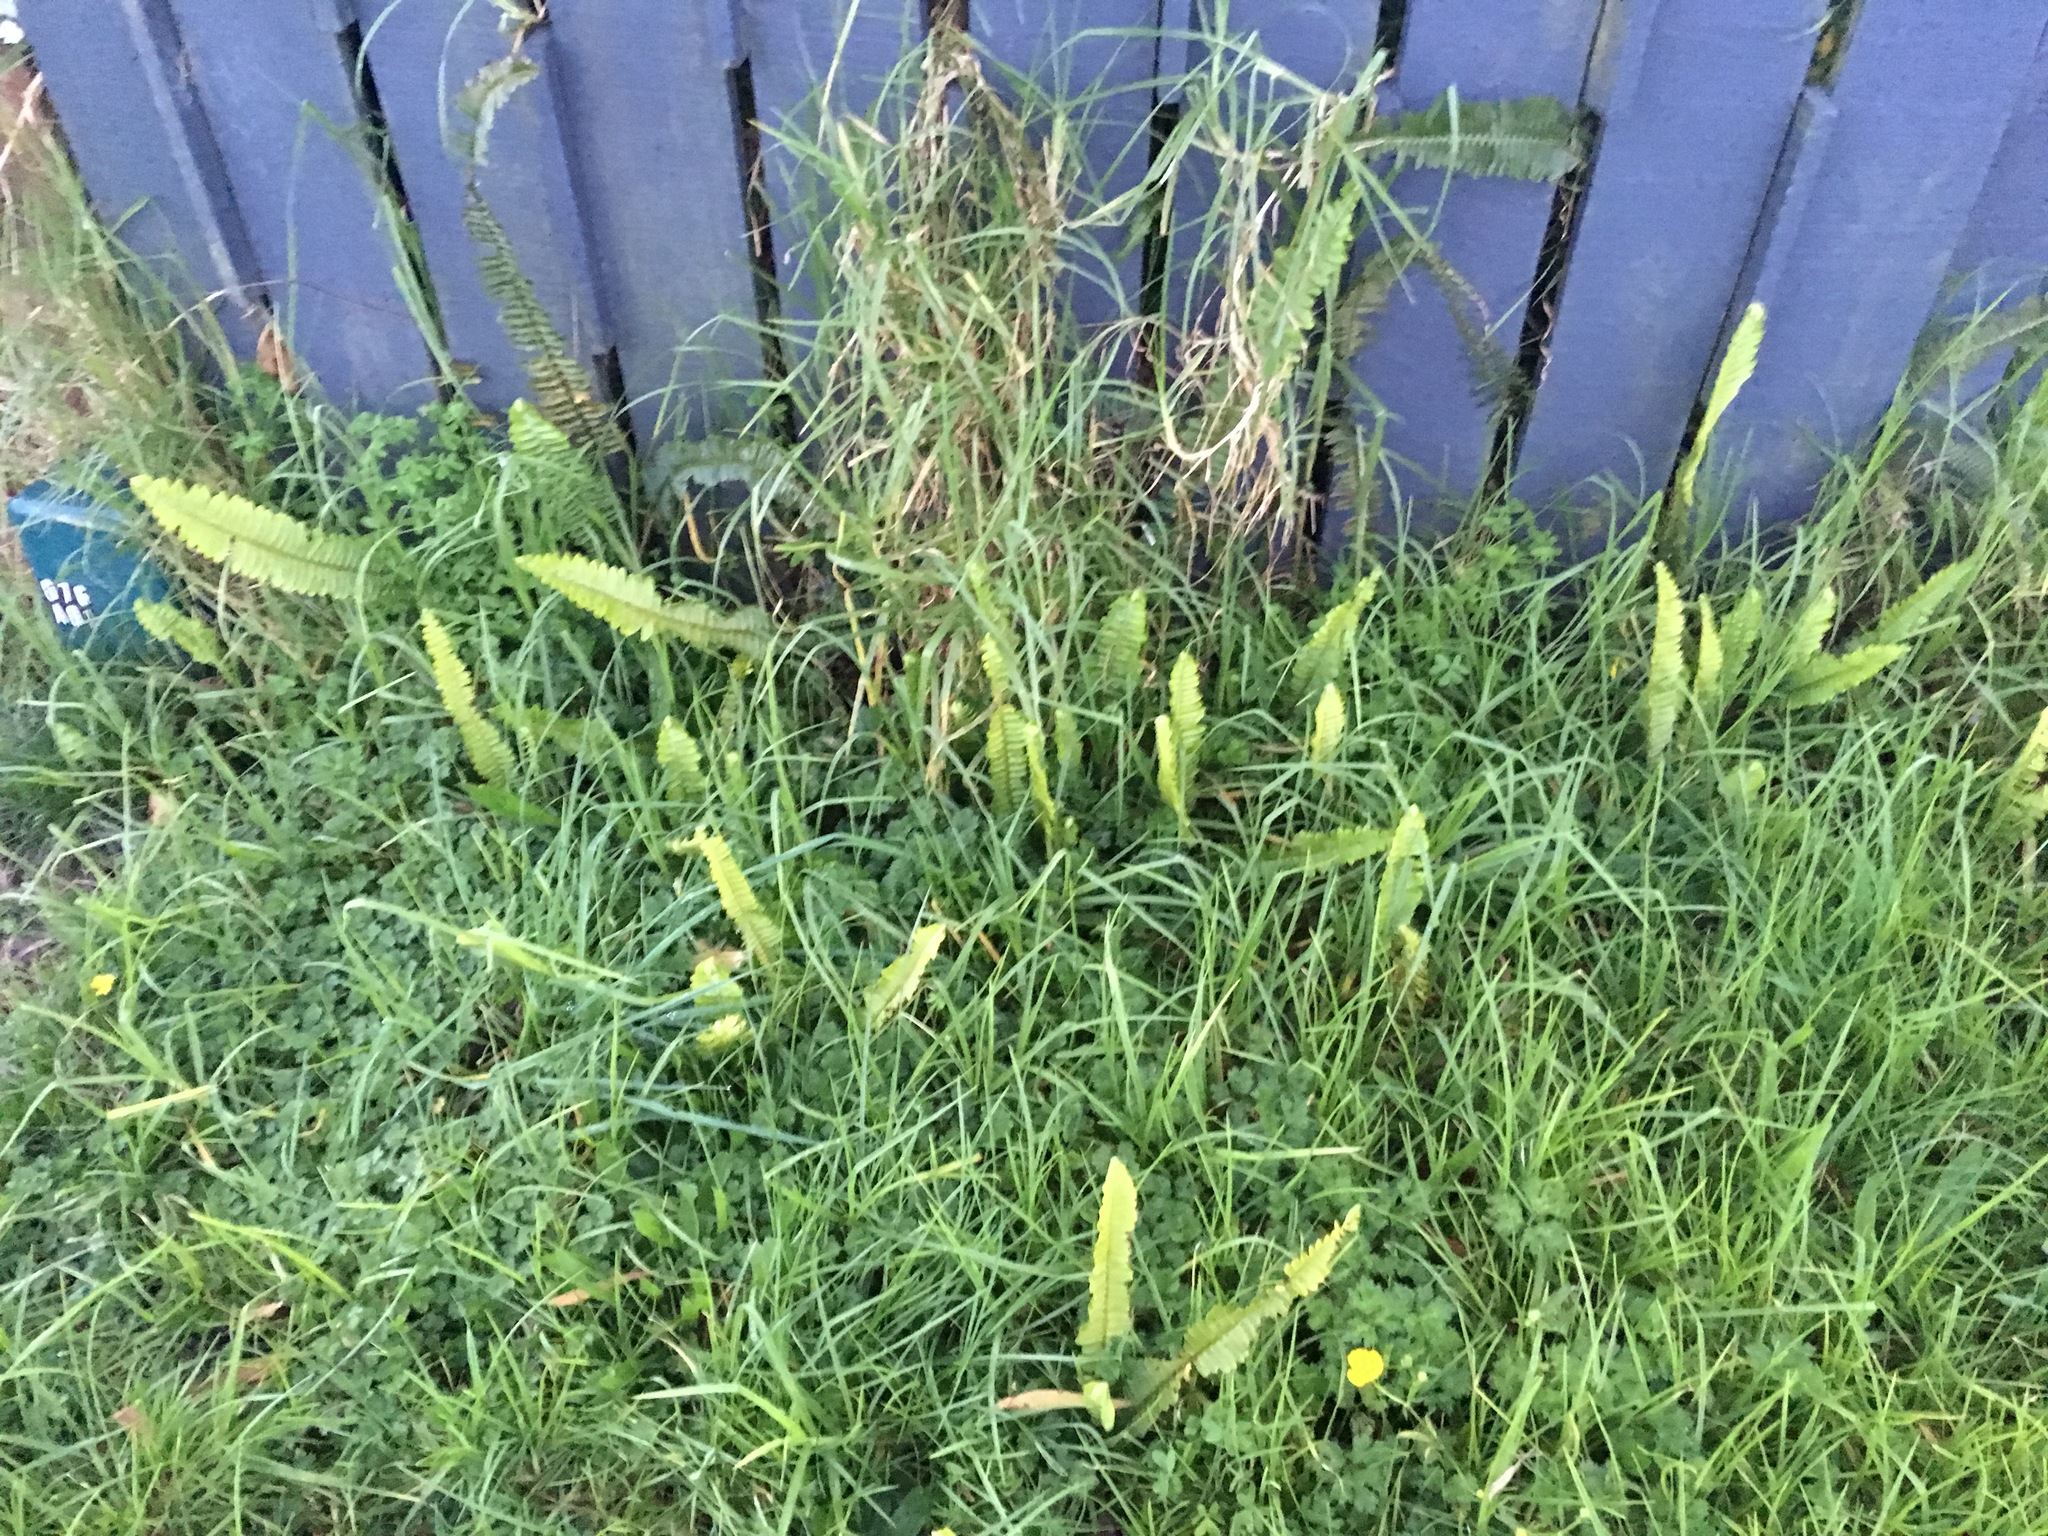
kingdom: Plantae
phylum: Tracheophyta
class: Polypodiopsida
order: Polypodiales
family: Nephrolepidaceae
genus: Nephrolepis
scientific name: Nephrolepis cordifolia
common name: Narrow swordfern
